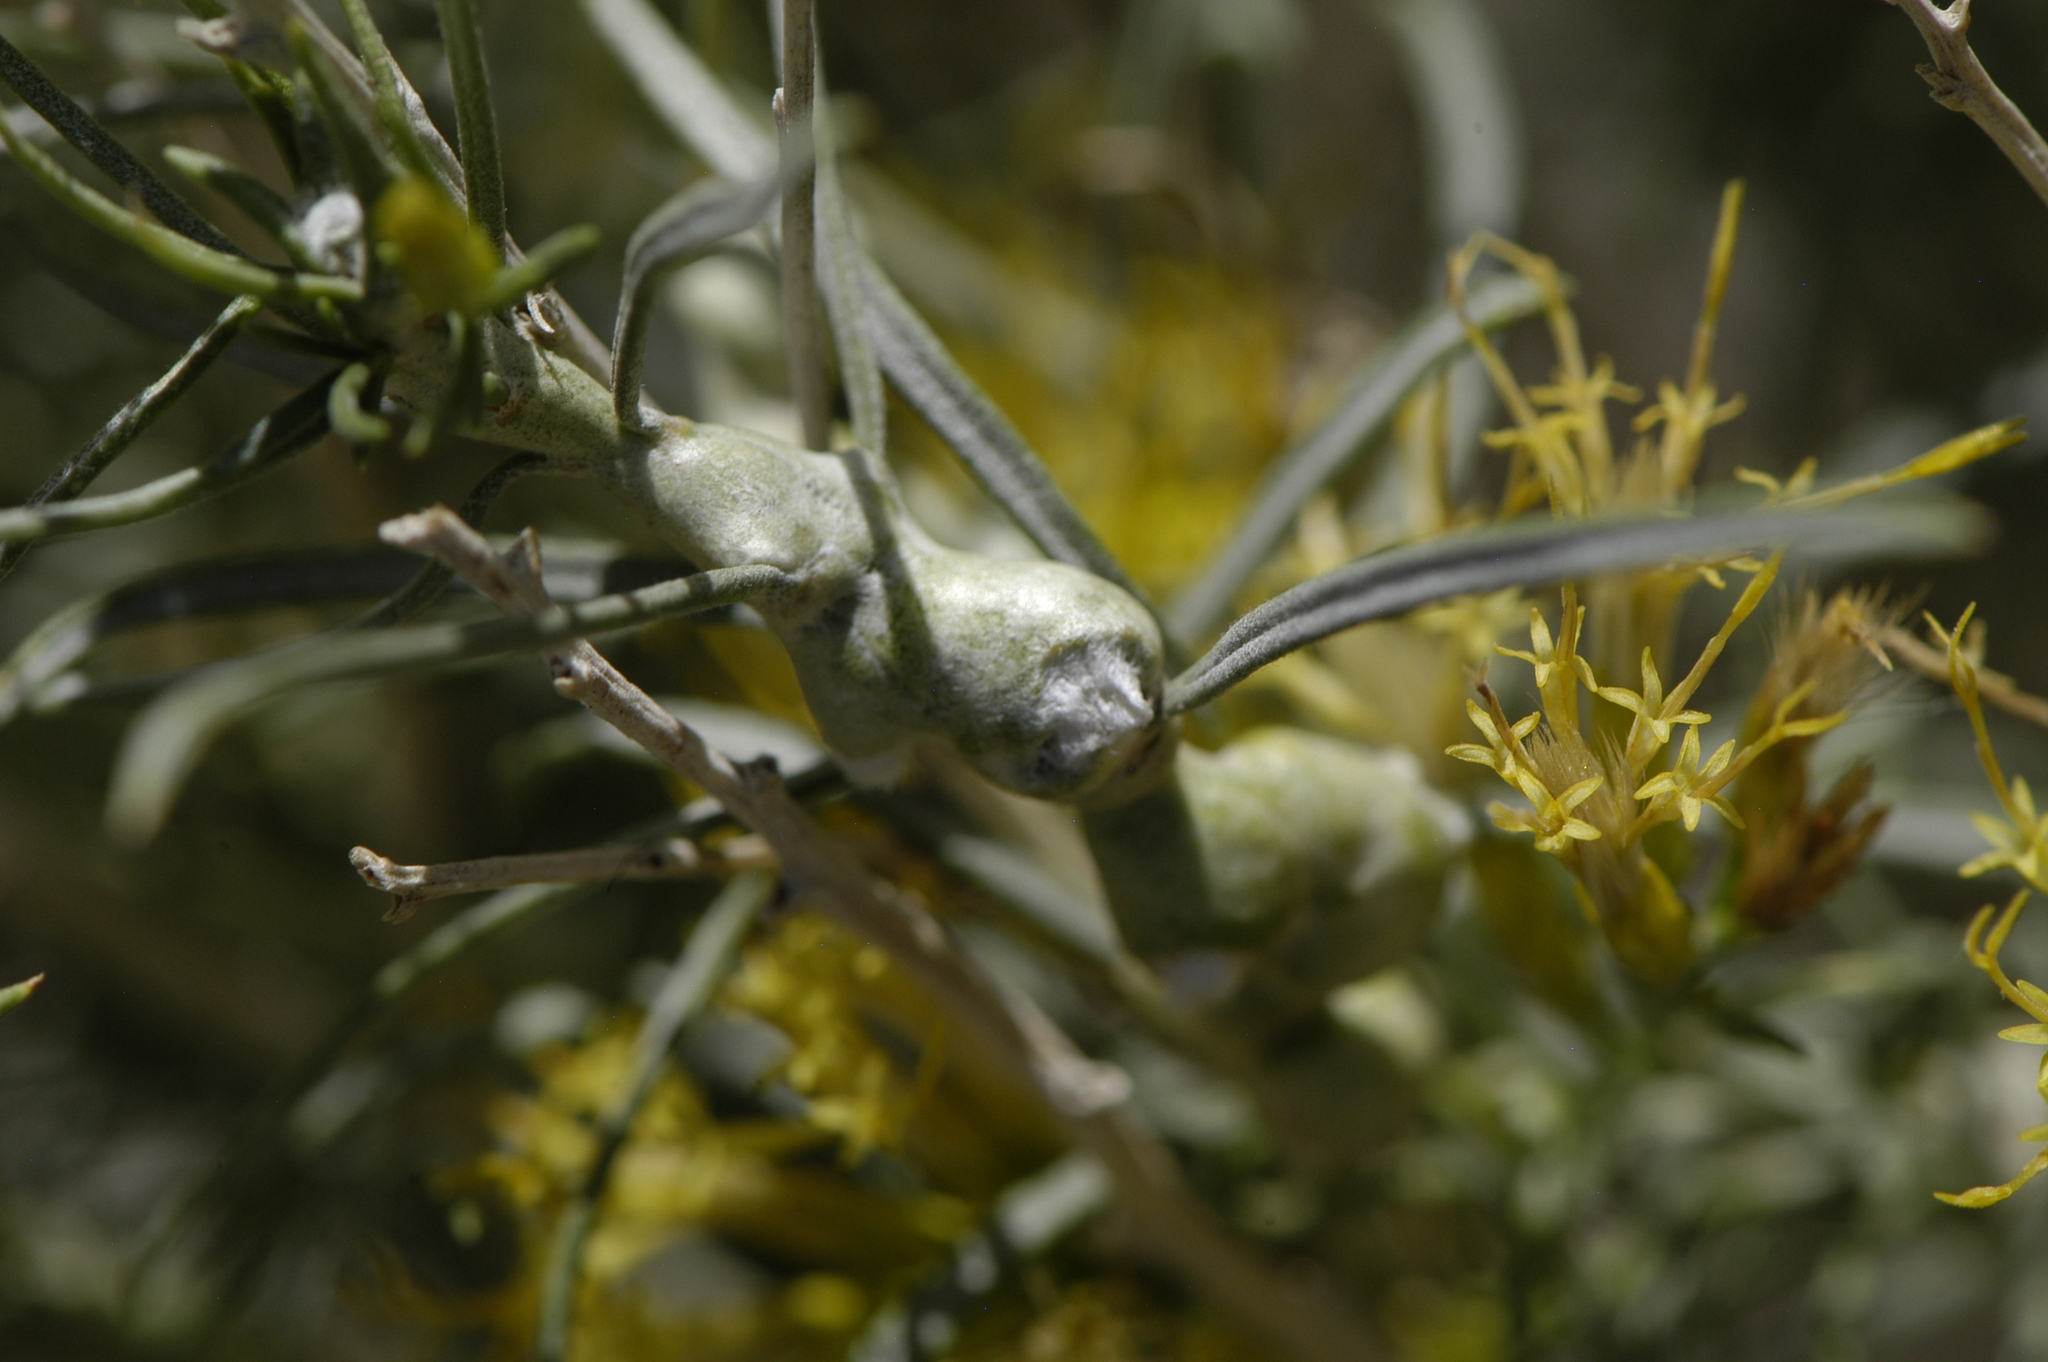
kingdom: Animalia
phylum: Arthropoda
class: Insecta
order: Diptera
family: Cecidomyiidae
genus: Rhopalomyia
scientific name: Rhopalomyia chrysothamni
